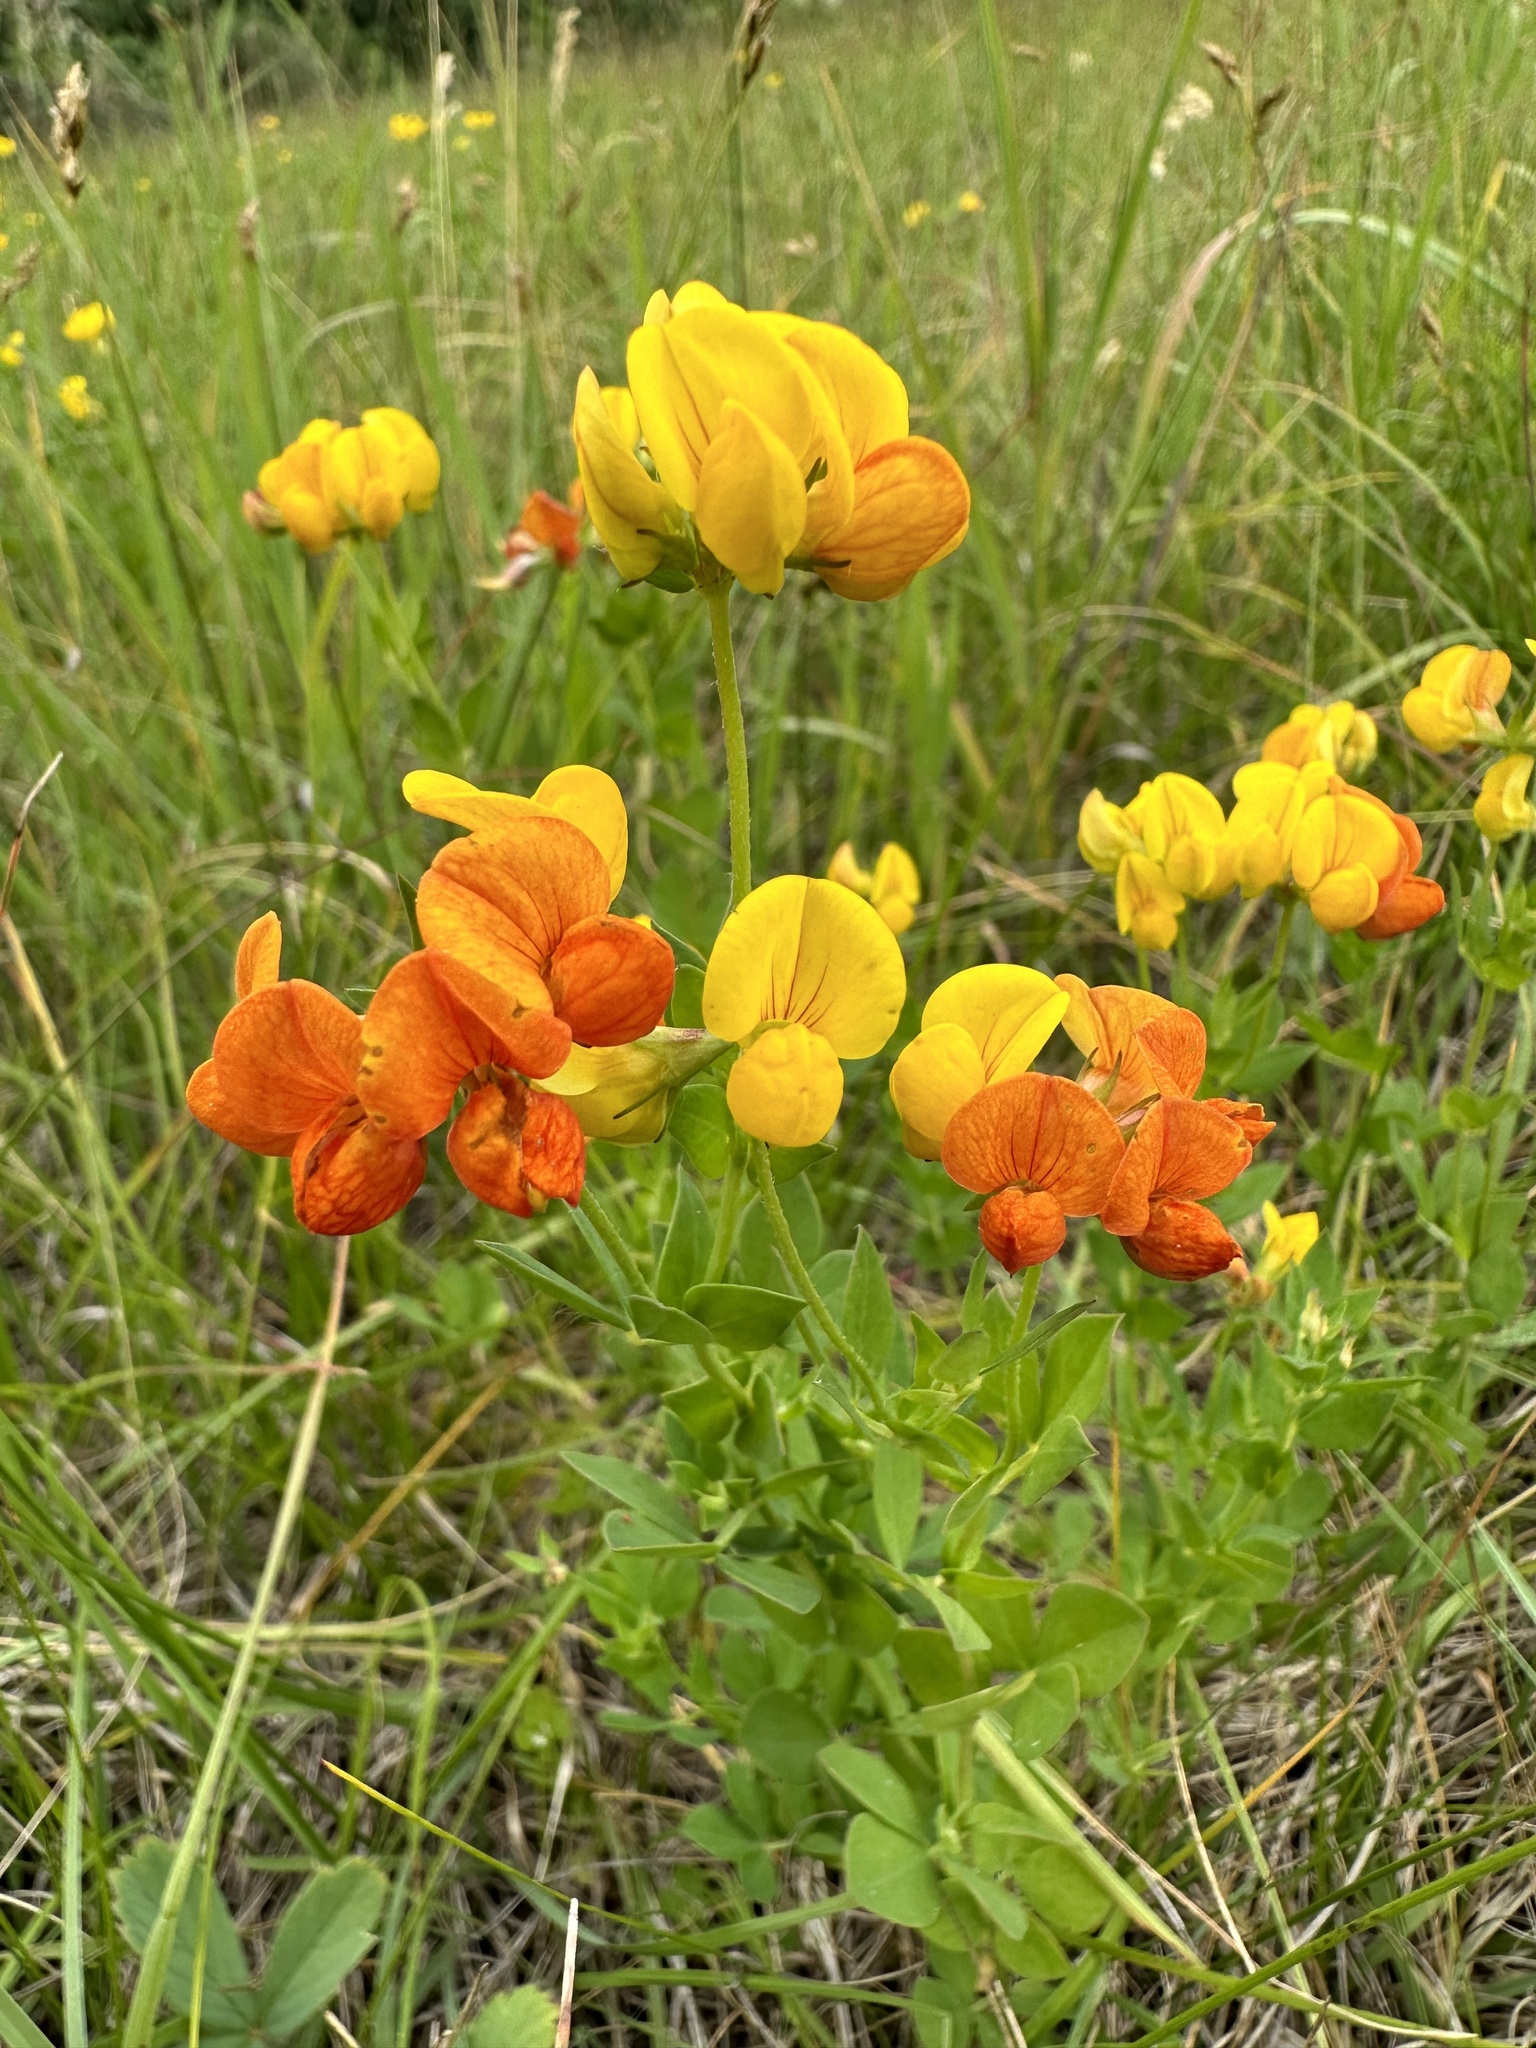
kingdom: Plantae
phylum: Tracheophyta
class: Magnoliopsida
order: Fabales
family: Fabaceae
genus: Lotus
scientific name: Lotus corniculatus
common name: Common bird's-foot-trefoil
